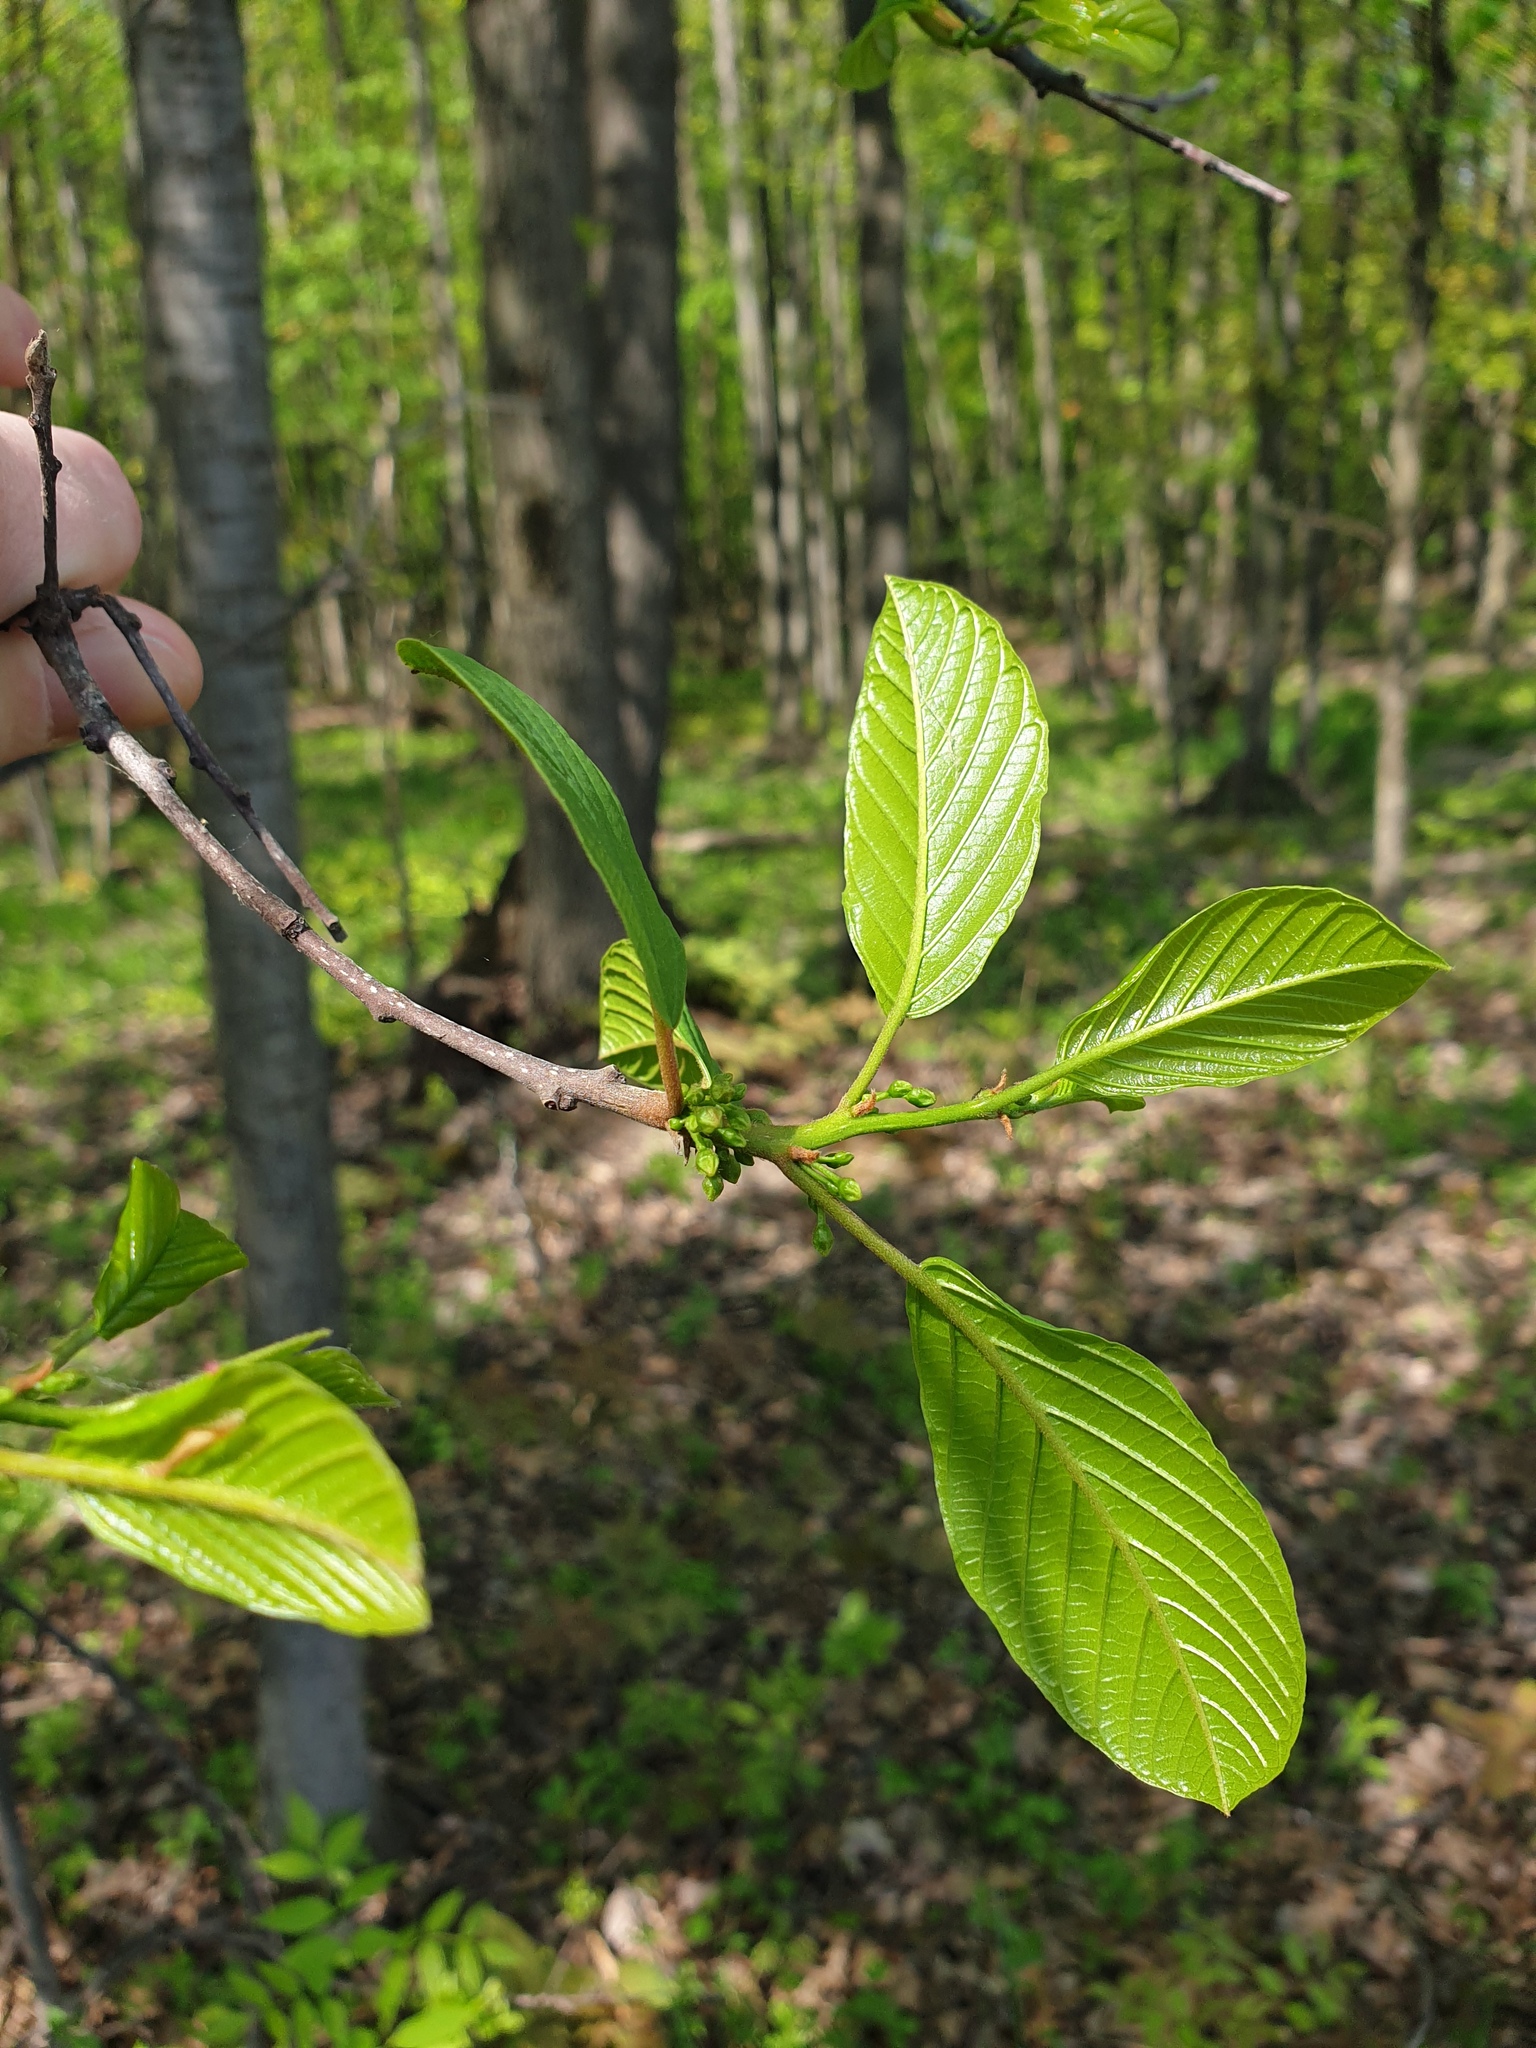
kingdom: Plantae
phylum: Tracheophyta
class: Magnoliopsida
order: Rosales
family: Rhamnaceae
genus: Frangula
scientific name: Frangula alnus
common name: Alder buckthorn
